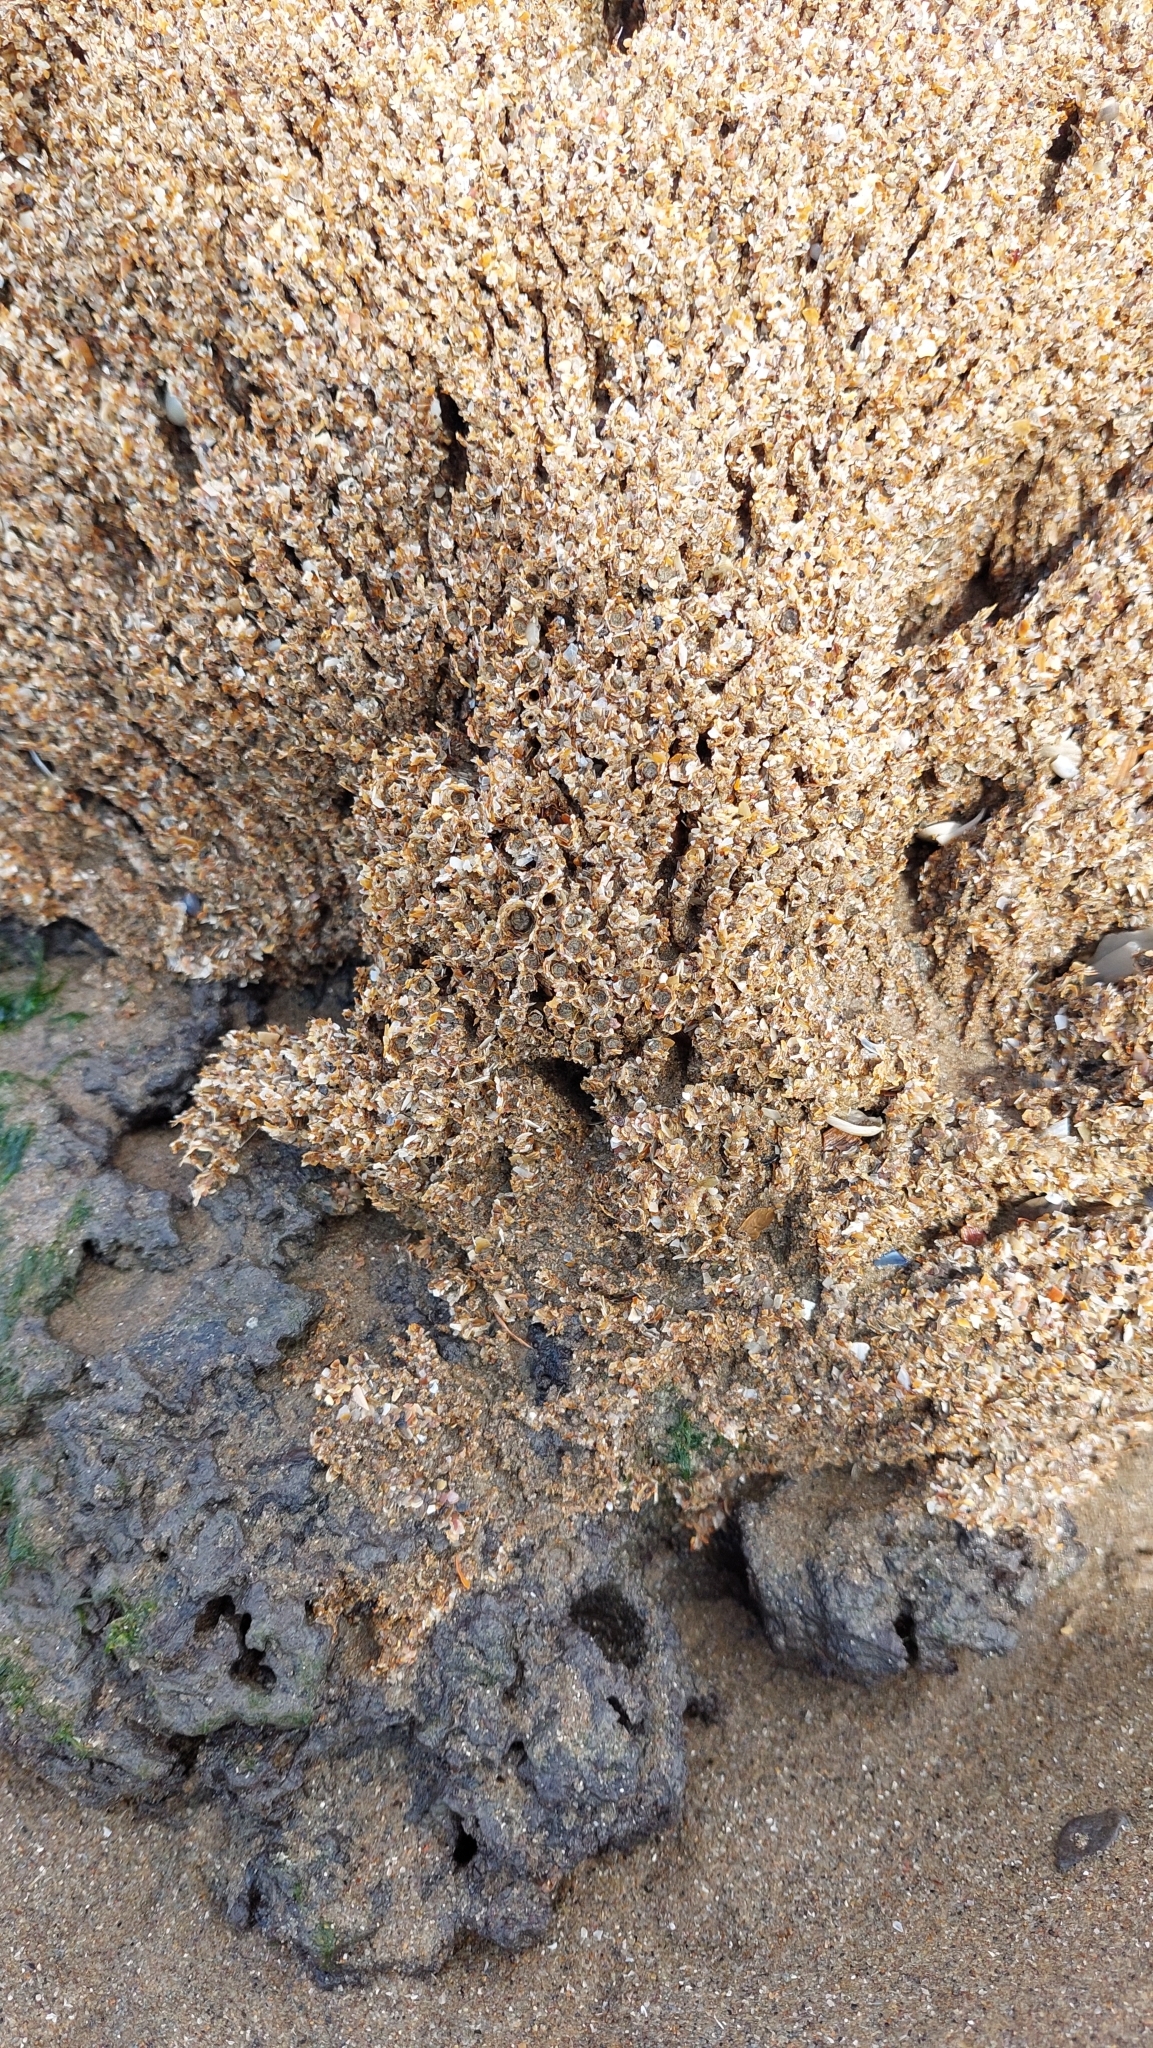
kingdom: Animalia
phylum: Annelida
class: Polychaeta
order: Sabellida
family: Sabellariidae
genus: Sabellaria
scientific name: Sabellaria alveolata
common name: Honeycomb worm
